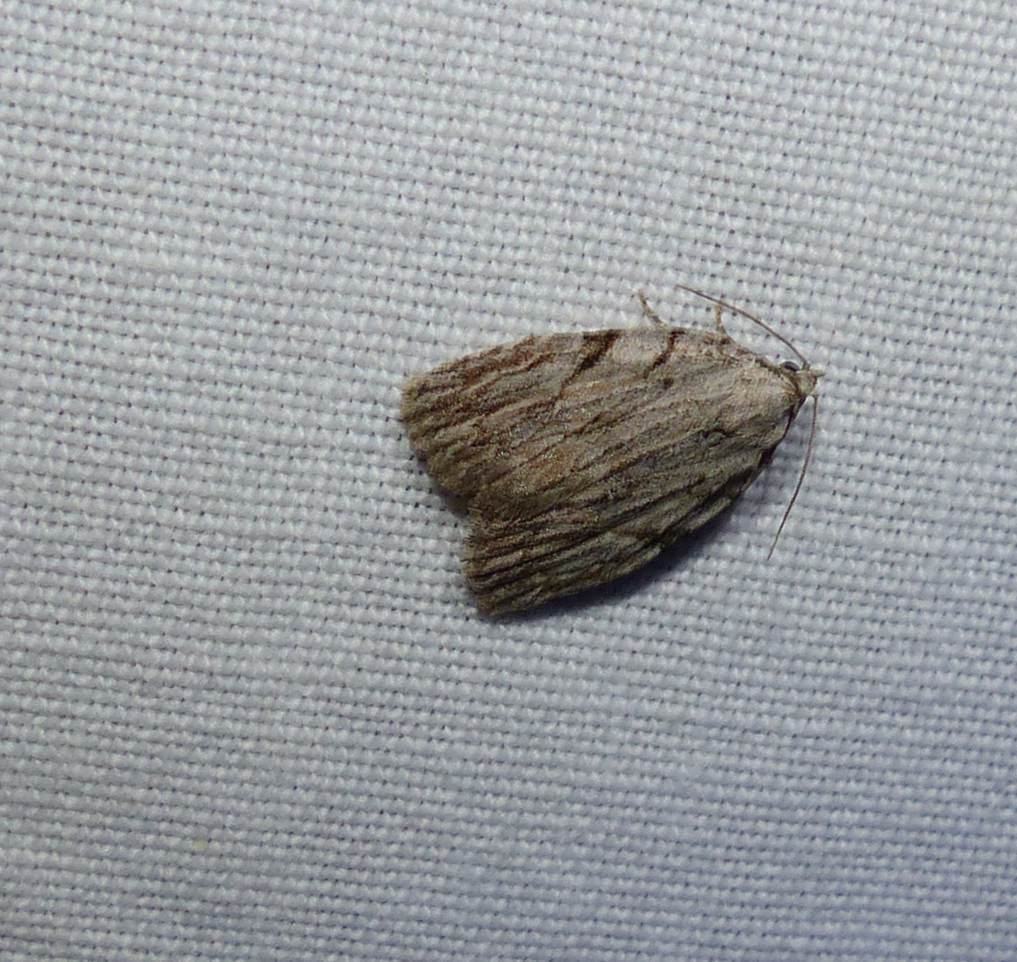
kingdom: Animalia
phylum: Arthropoda
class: Insecta
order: Lepidoptera
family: Noctuidae
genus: Balsa
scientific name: Balsa tristrigella
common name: Three-lined balsa moth
